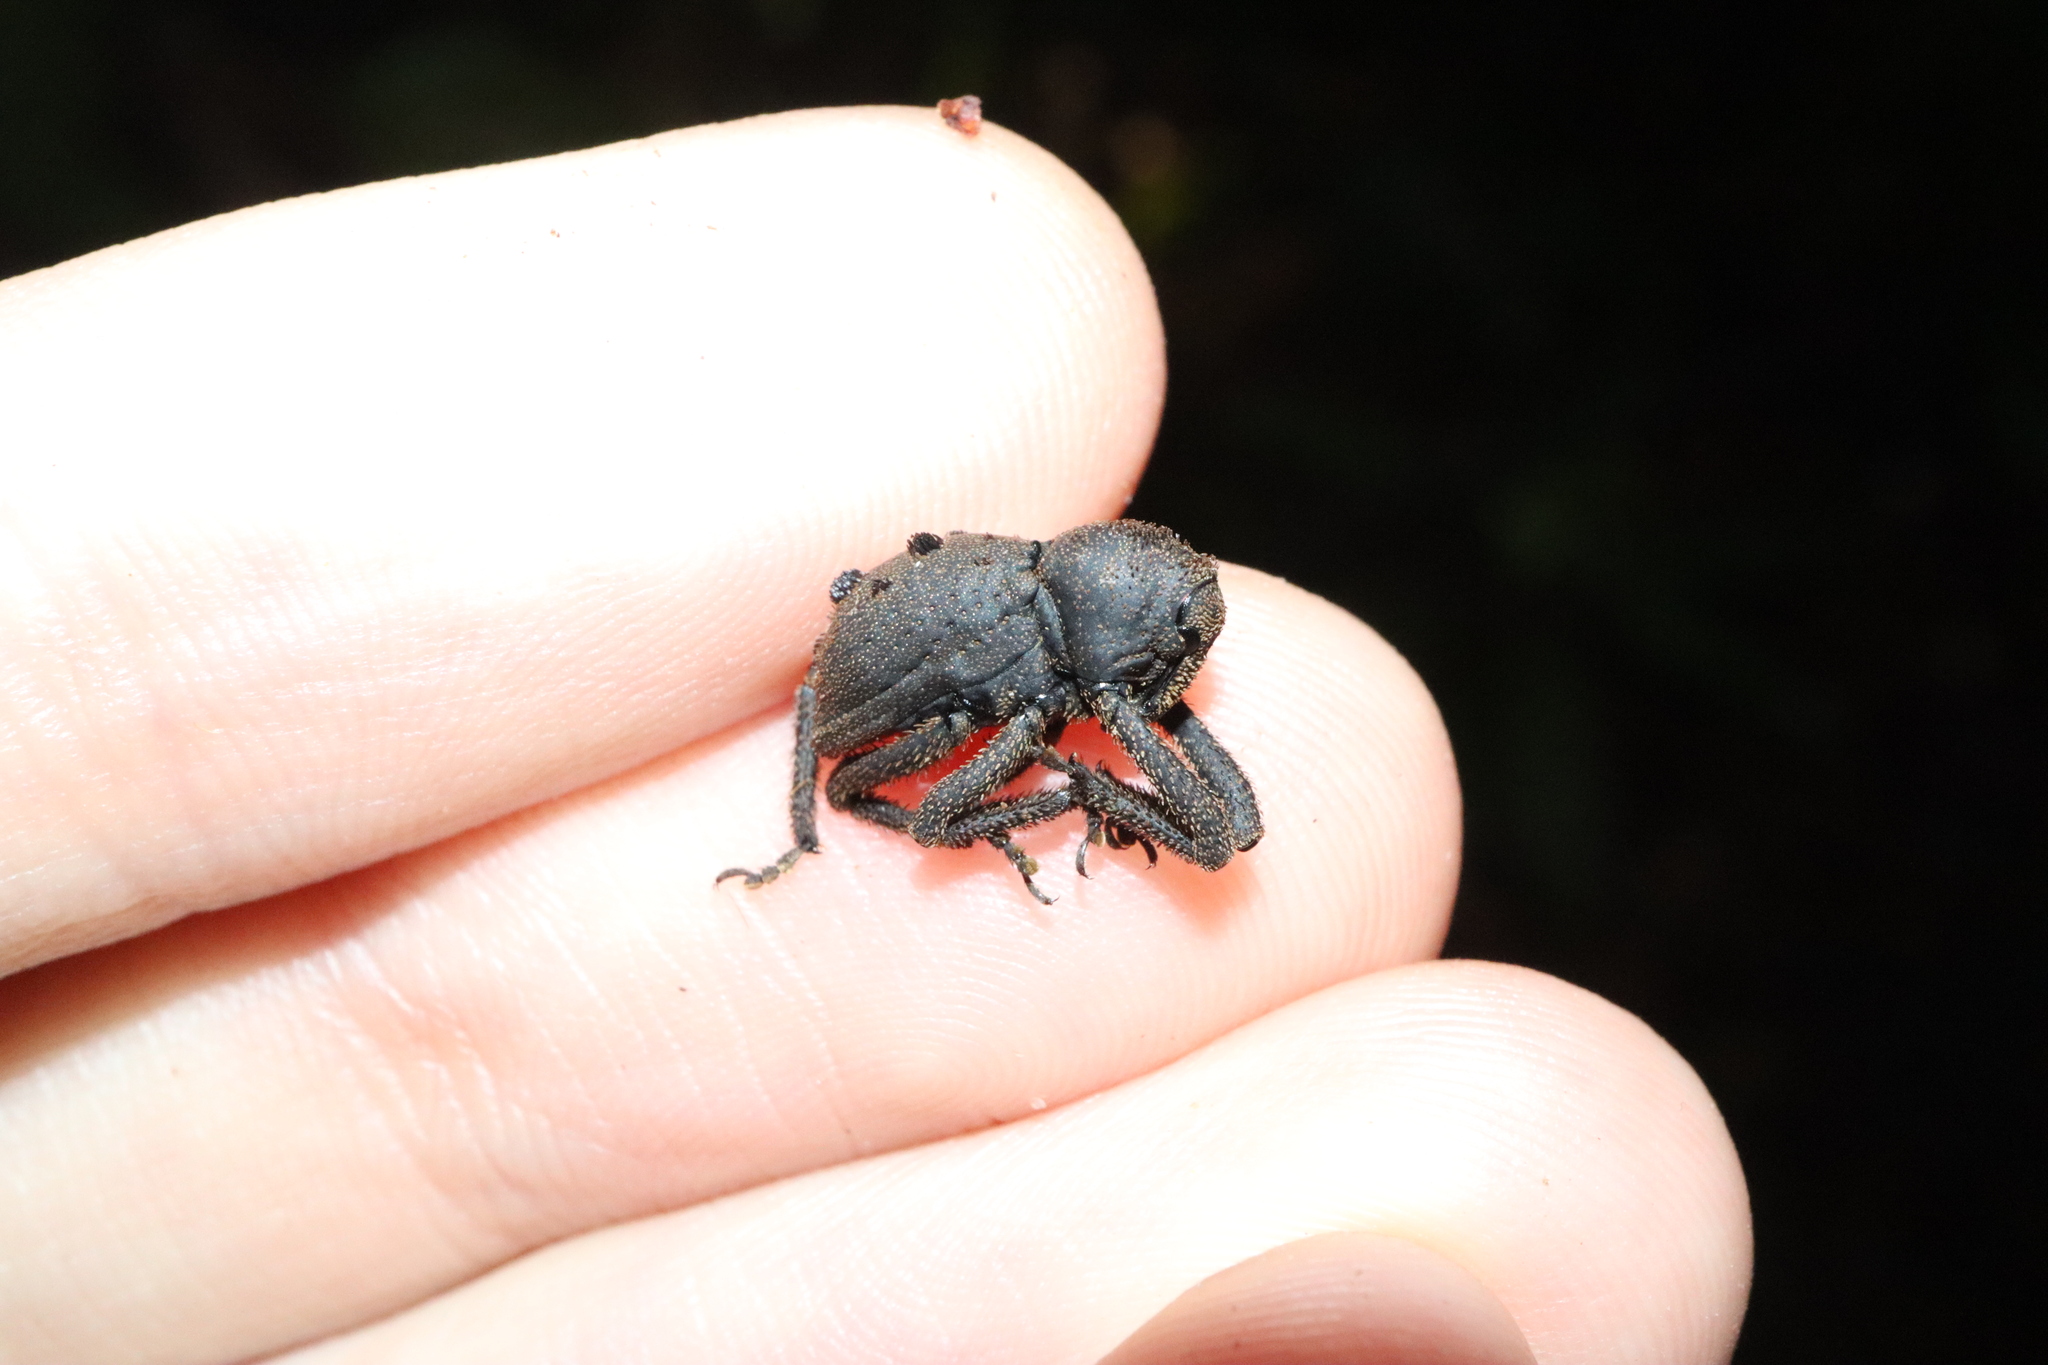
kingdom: Animalia
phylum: Arthropoda
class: Insecta
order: Coleoptera
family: Curculionidae
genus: Poropterus
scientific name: Poropterus fasciculatus
